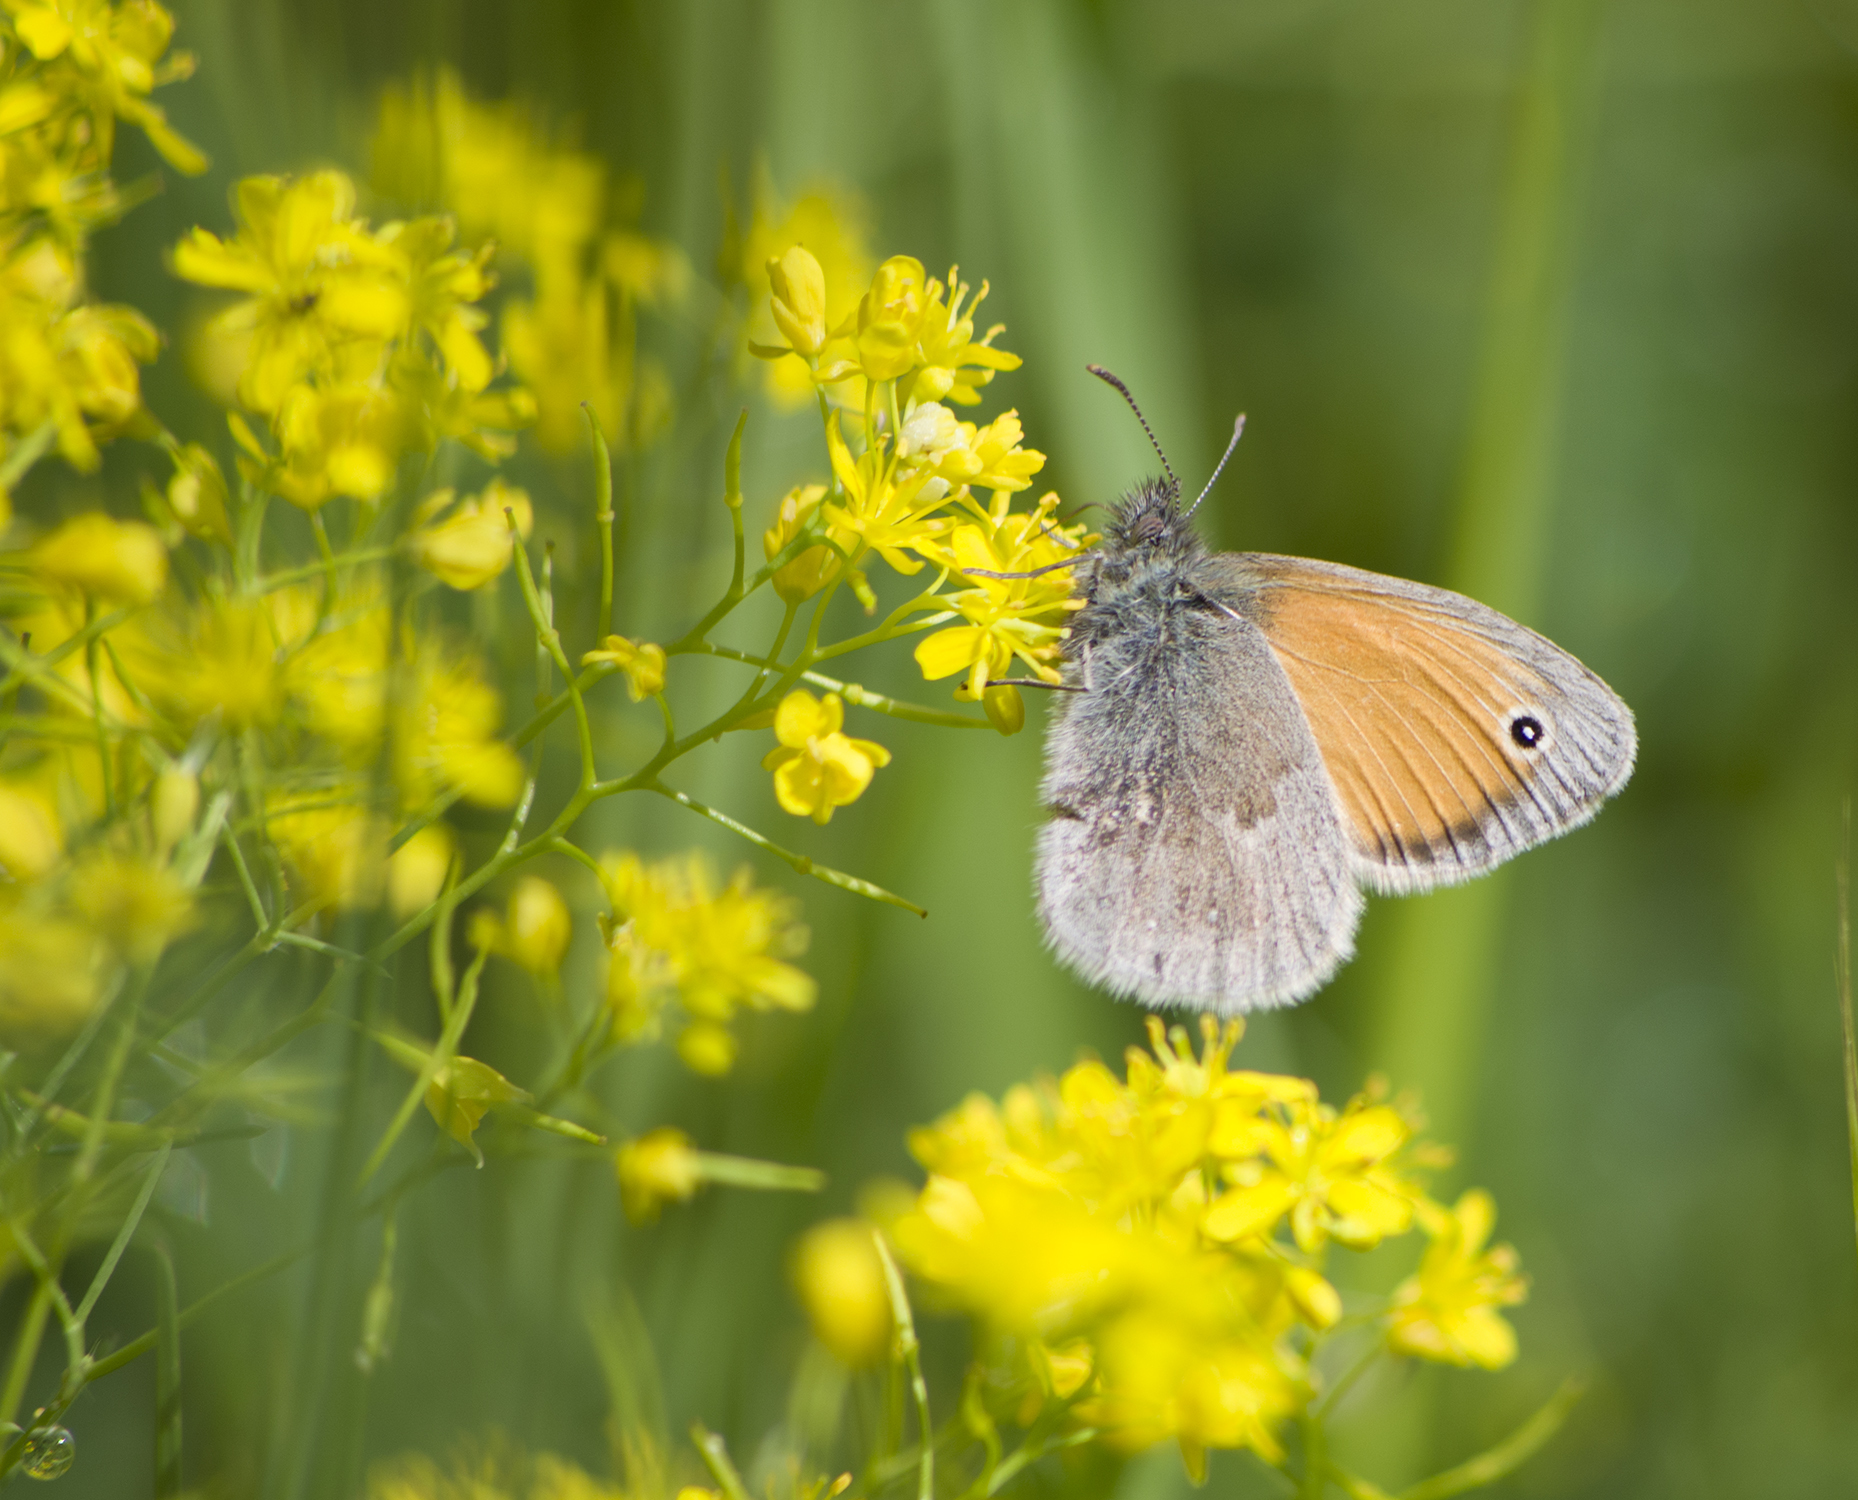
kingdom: Animalia
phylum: Arthropoda
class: Insecta
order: Lepidoptera
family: Nymphalidae
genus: Coenonympha
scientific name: Coenonympha pamphilus
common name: Small heath
